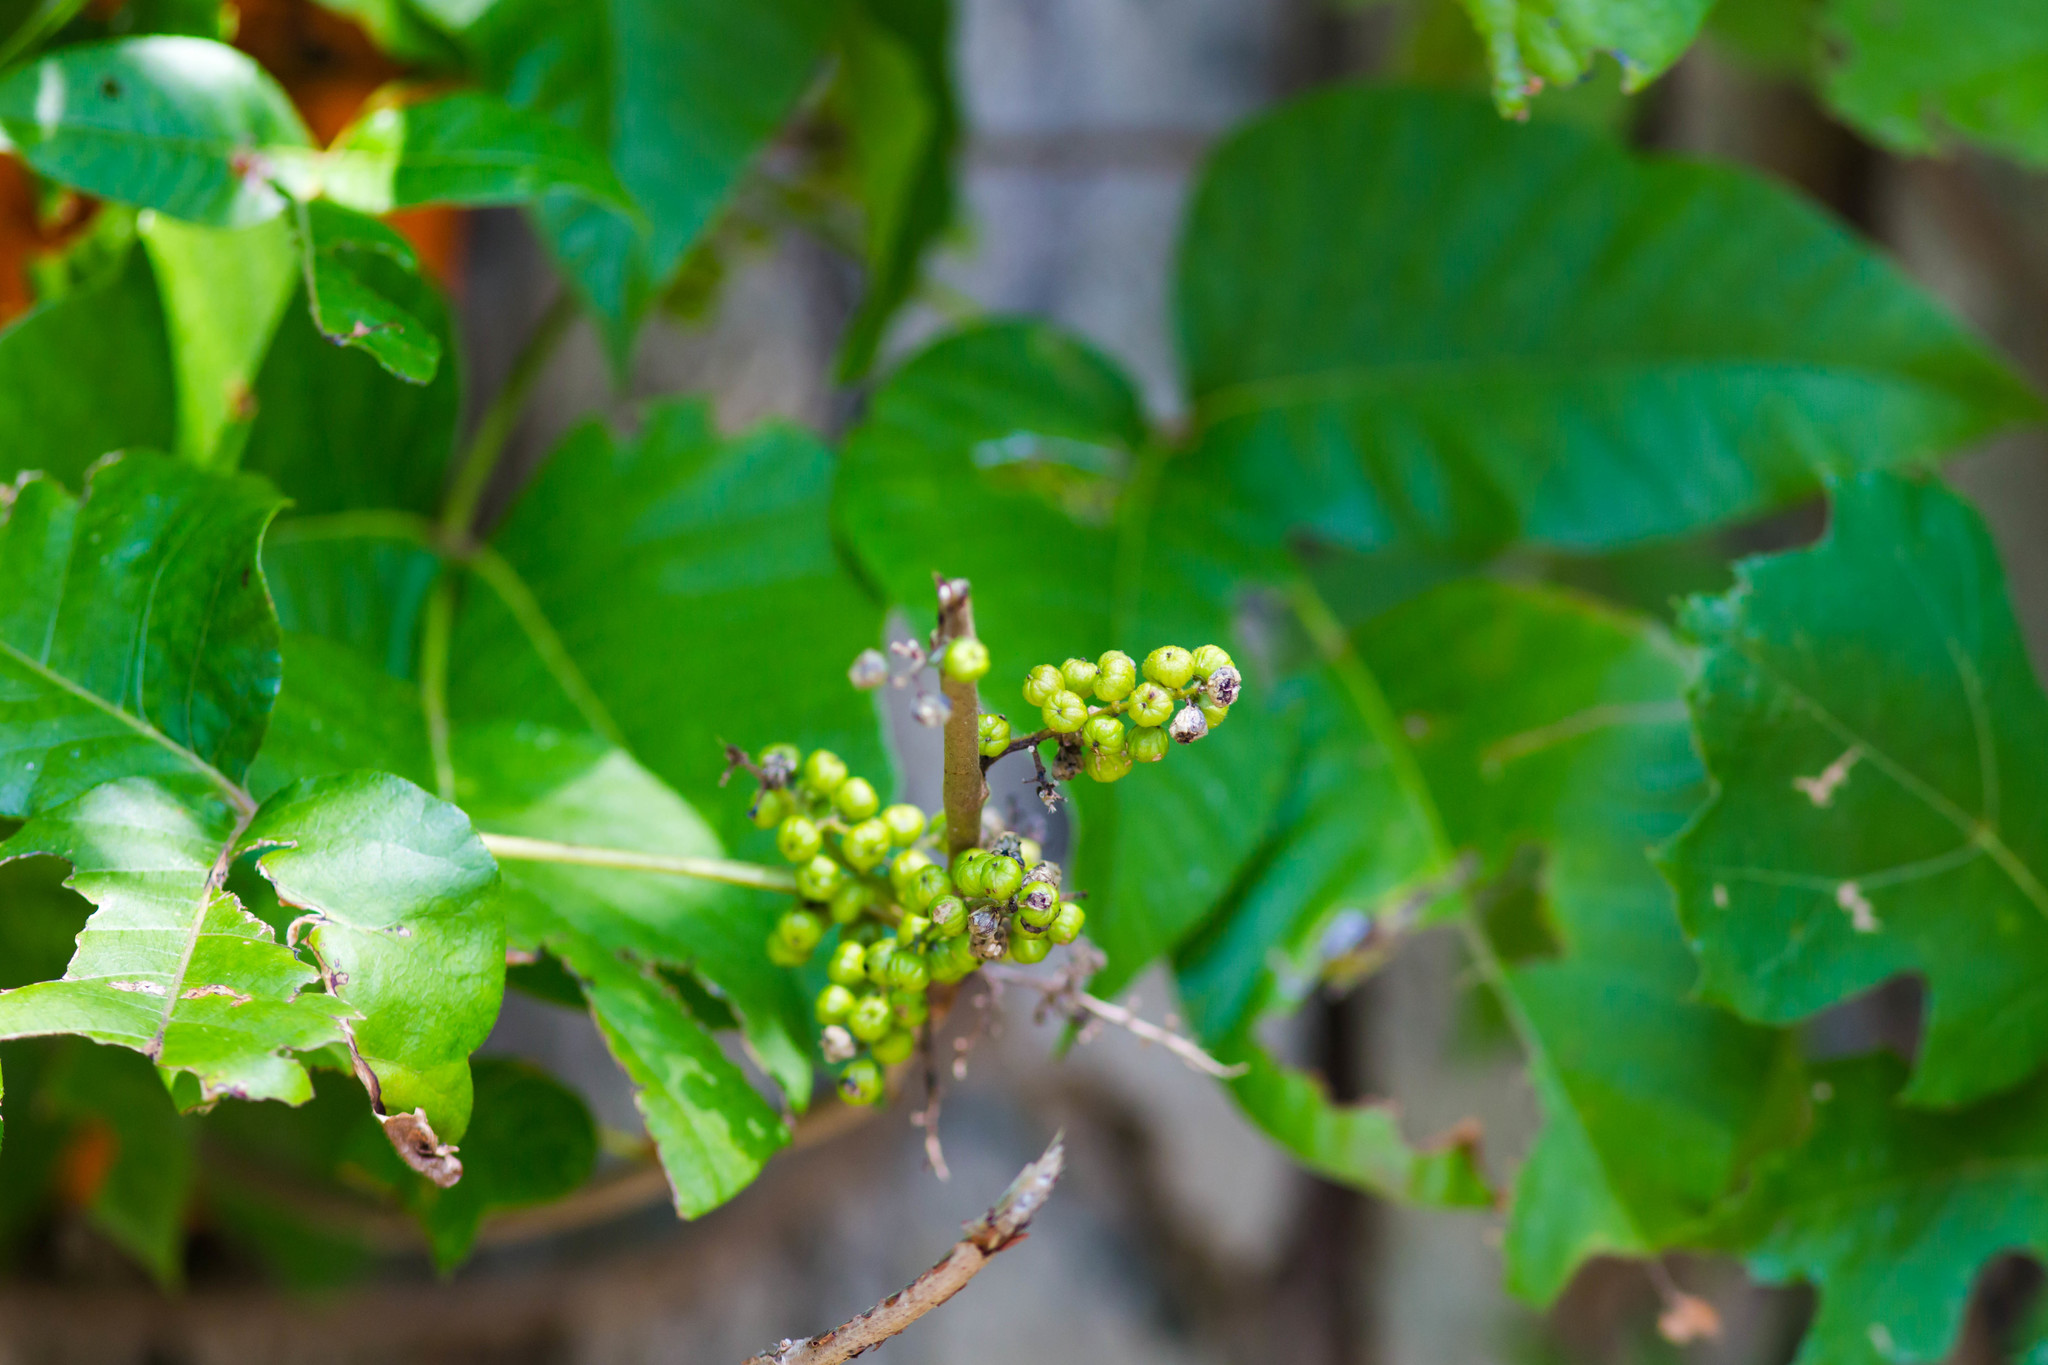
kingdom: Plantae
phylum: Tracheophyta
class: Magnoliopsida
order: Sapindales
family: Anacardiaceae
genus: Toxicodendron
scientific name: Toxicodendron radicans
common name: Poison ivy
